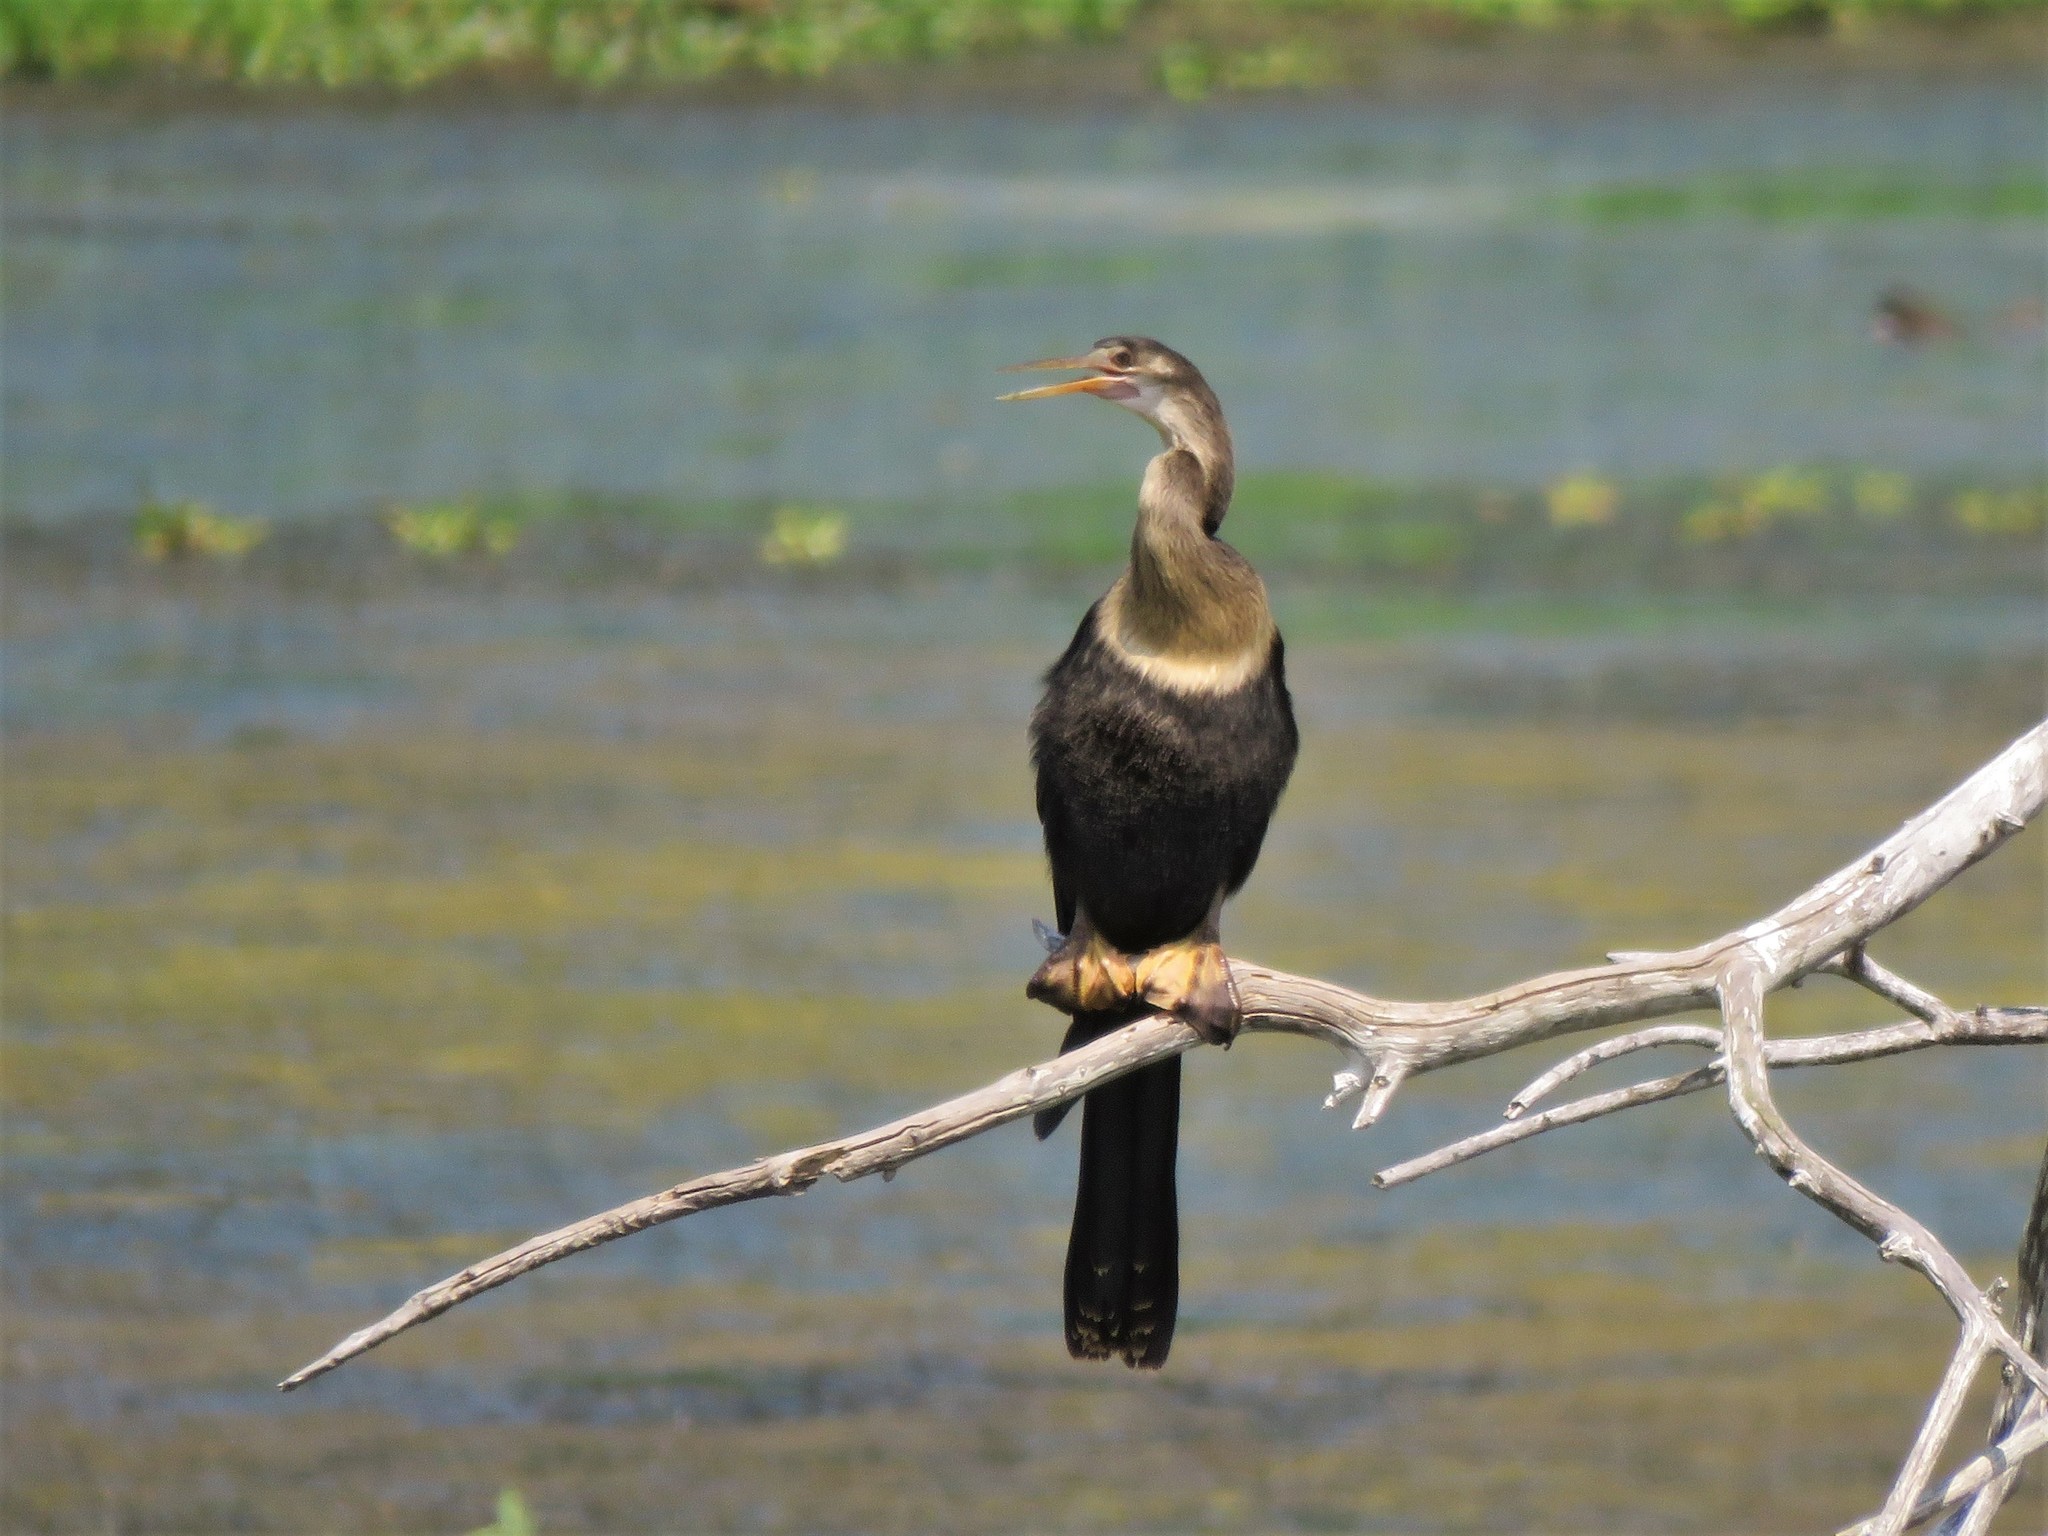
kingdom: Animalia
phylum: Chordata
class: Aves
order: Suliformes
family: Anhingidae
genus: Anhinga
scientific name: Anhinga anhinga
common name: Anhinga
